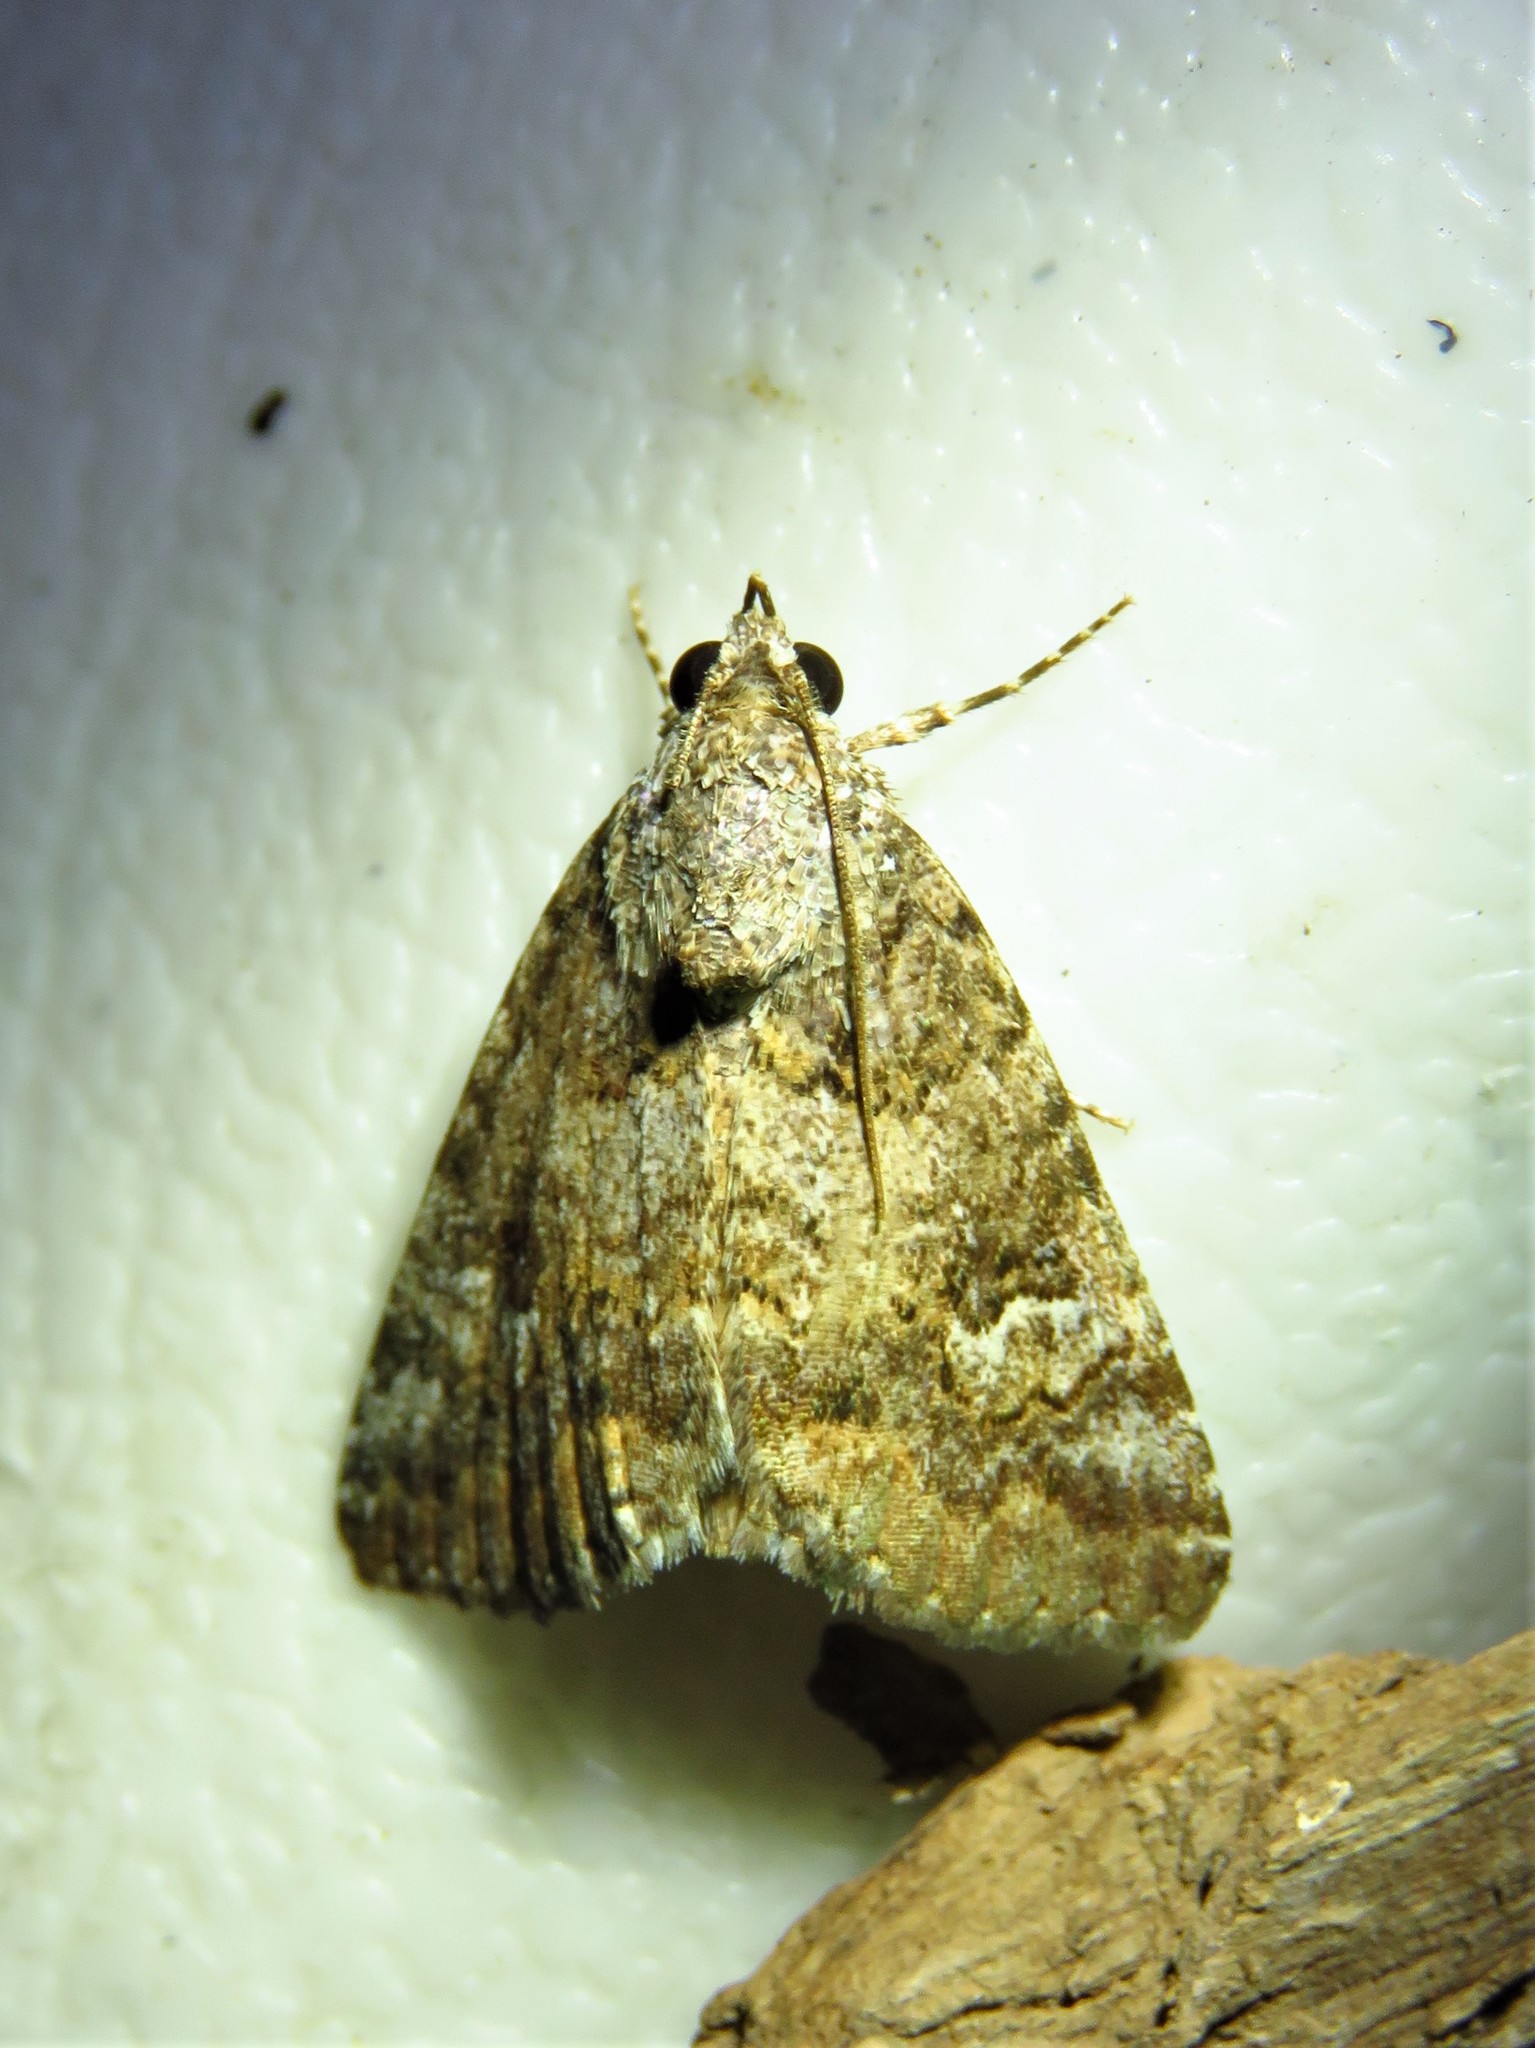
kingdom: Animalia
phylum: Arthropoda
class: Insecta
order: Lepidoptera
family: Erebidae
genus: Eubolina
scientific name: Eubolina impartialis
